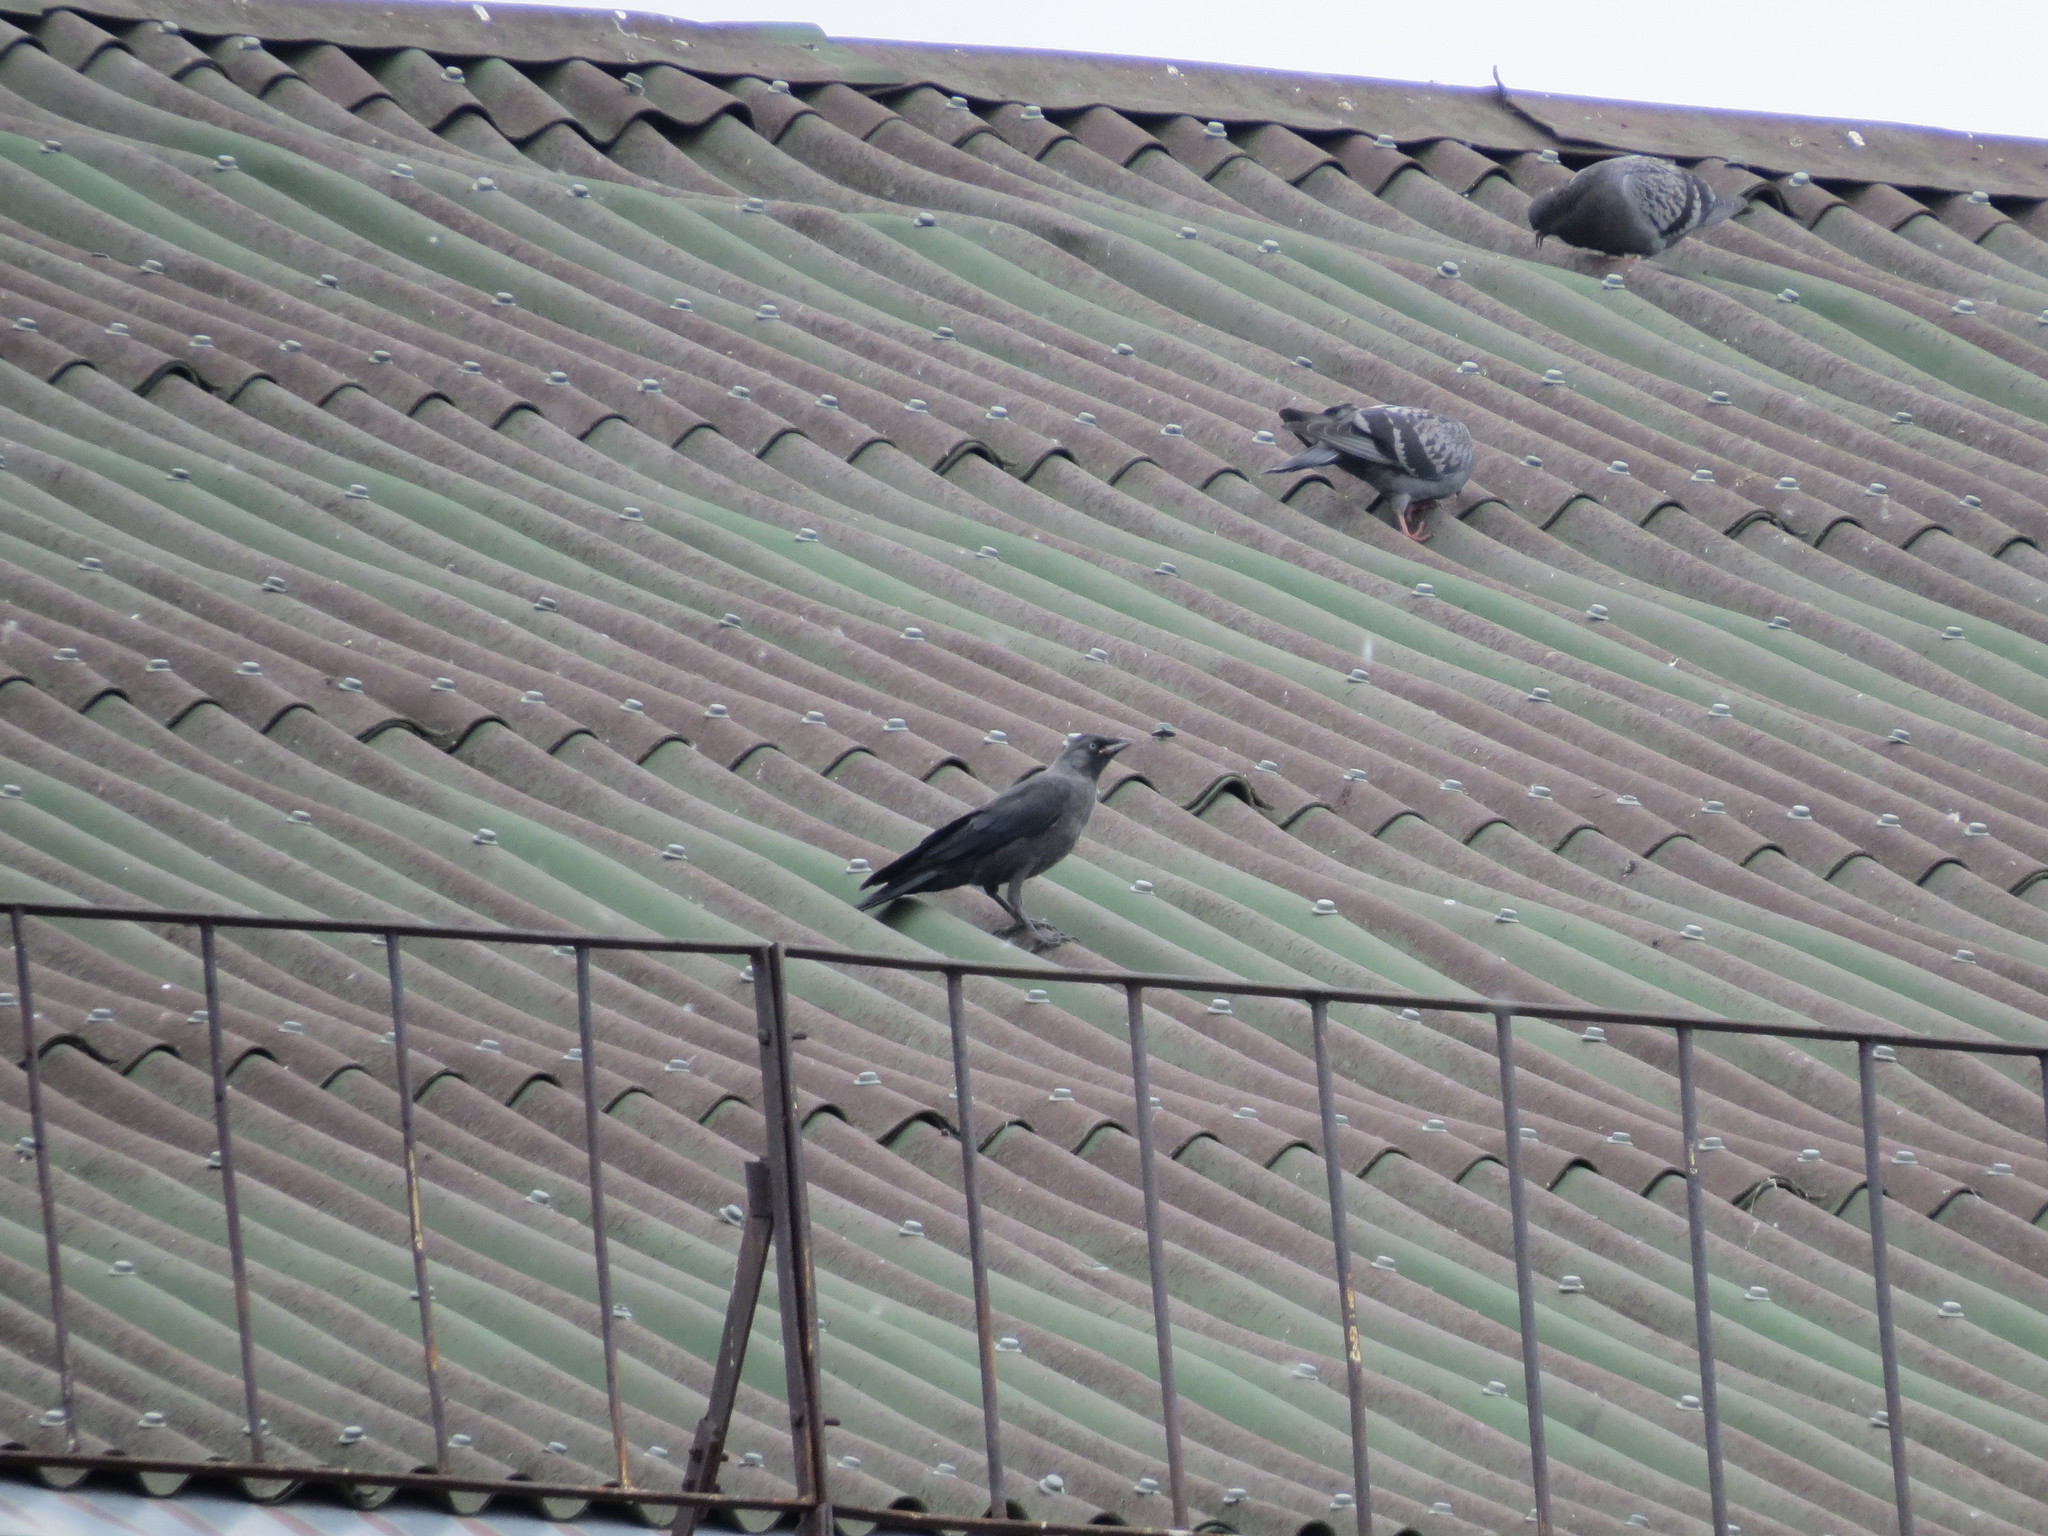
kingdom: Animalia
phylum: Chordata
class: Aves
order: Passeriformes
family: Corvidae
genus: Coloeus
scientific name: Coloeus monedula
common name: Western jackdaw
